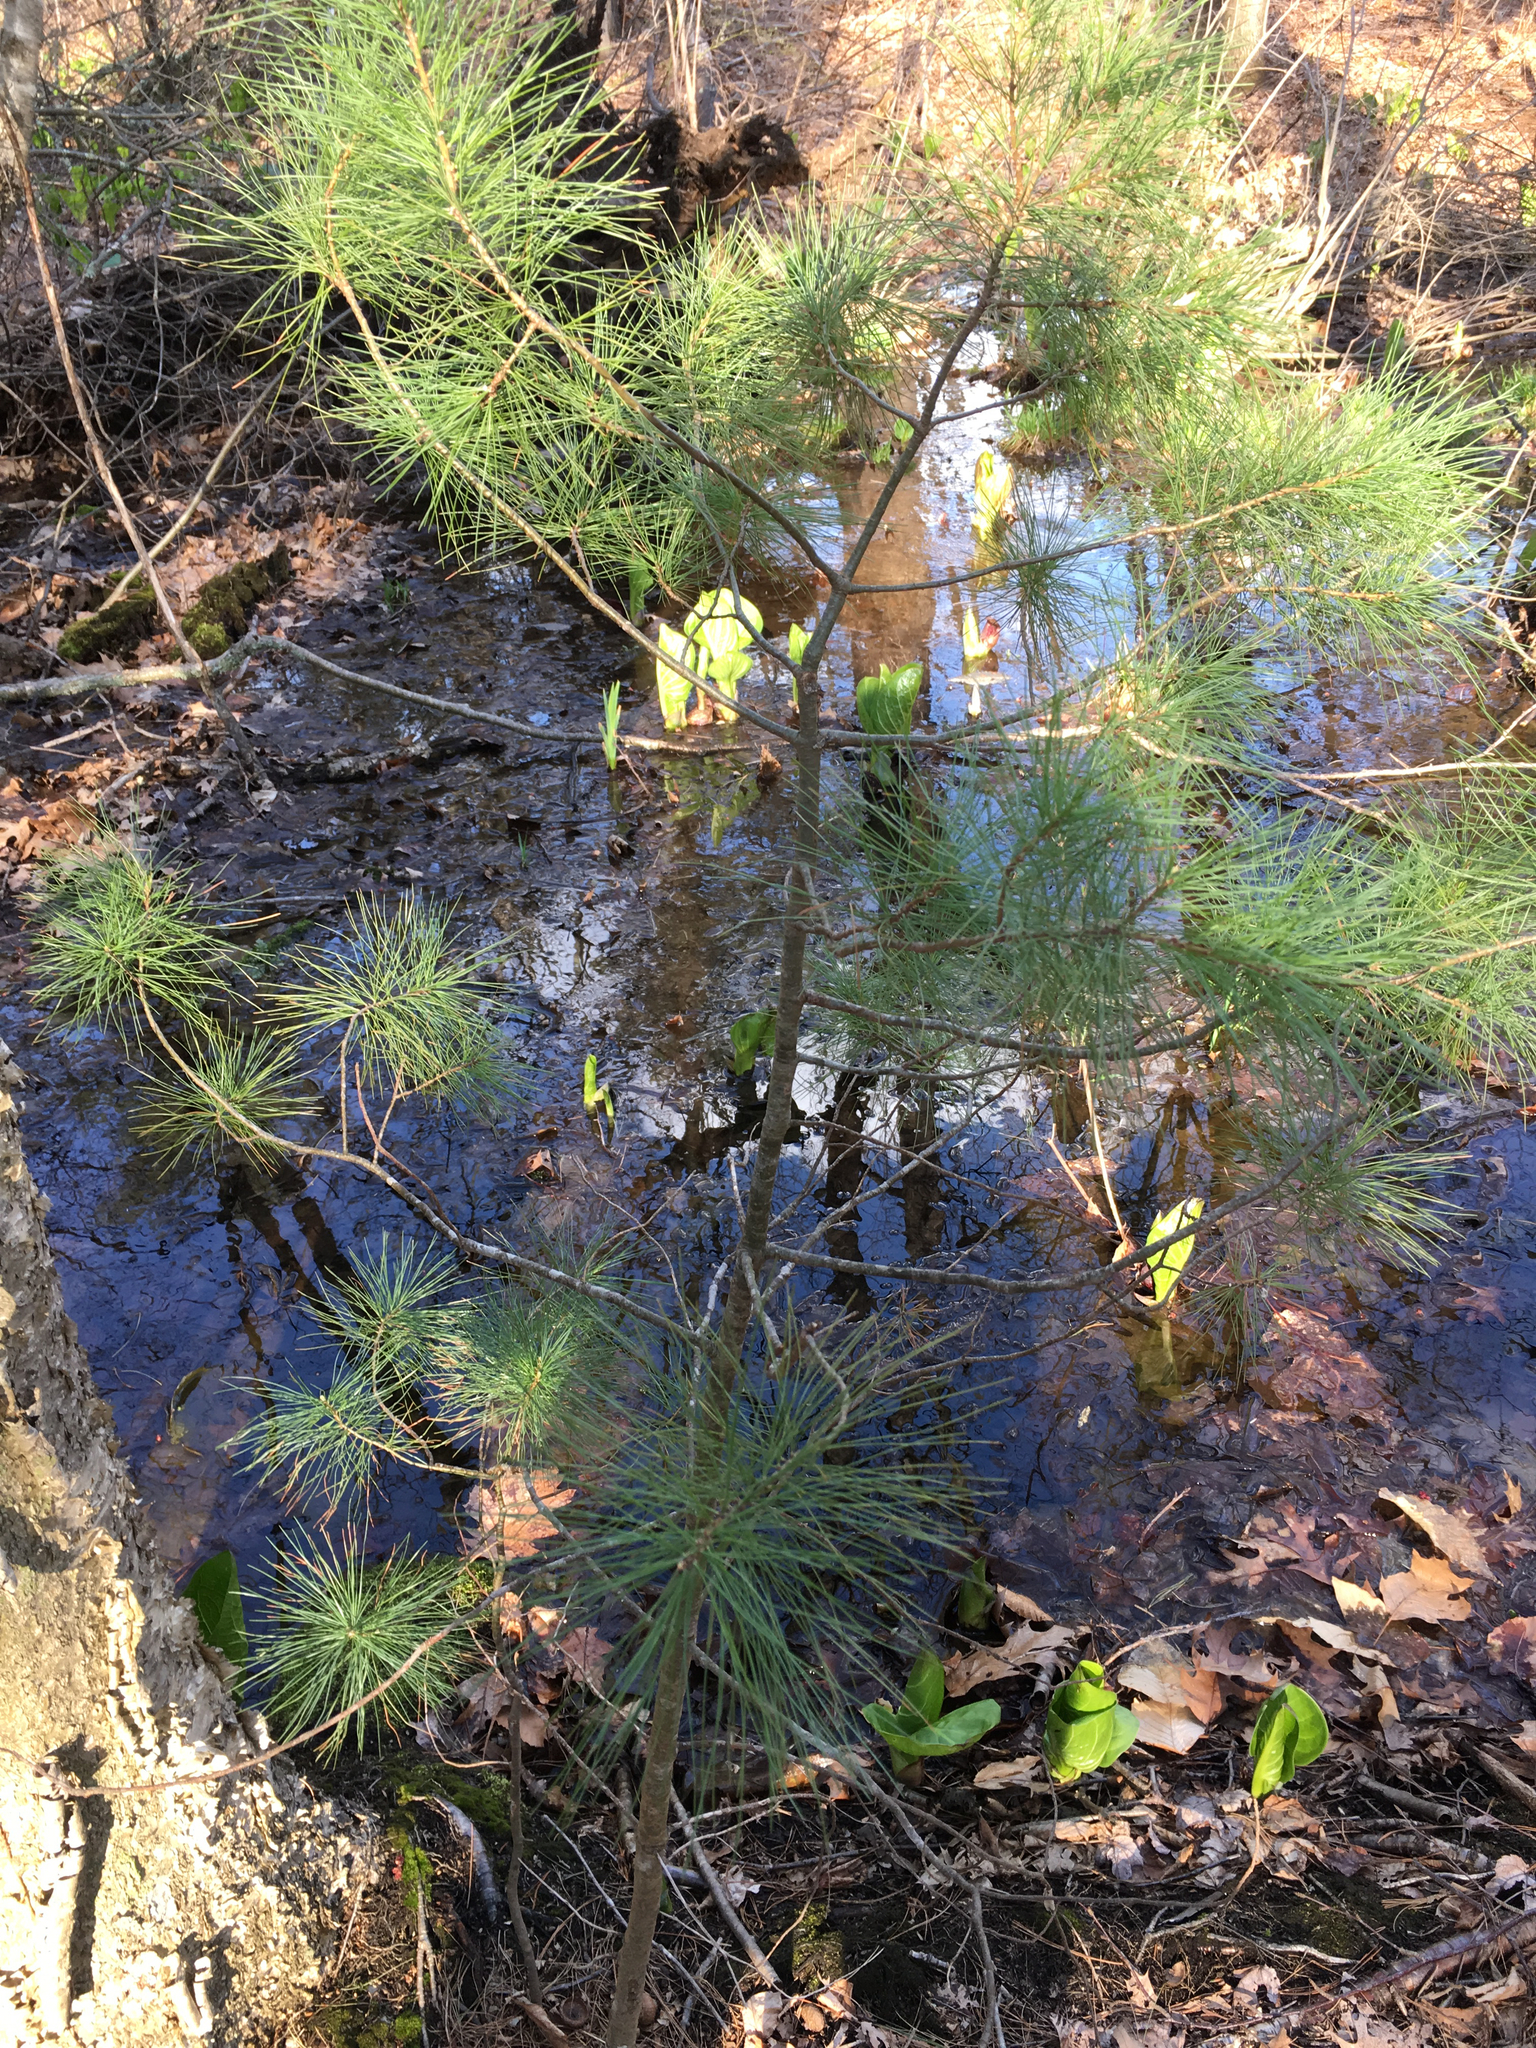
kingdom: Plantae
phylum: Tracheophyta
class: Pinopsida
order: Pinales
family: Pinaceae
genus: Pinus
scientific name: Pinus strobus
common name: Weymouth pine
